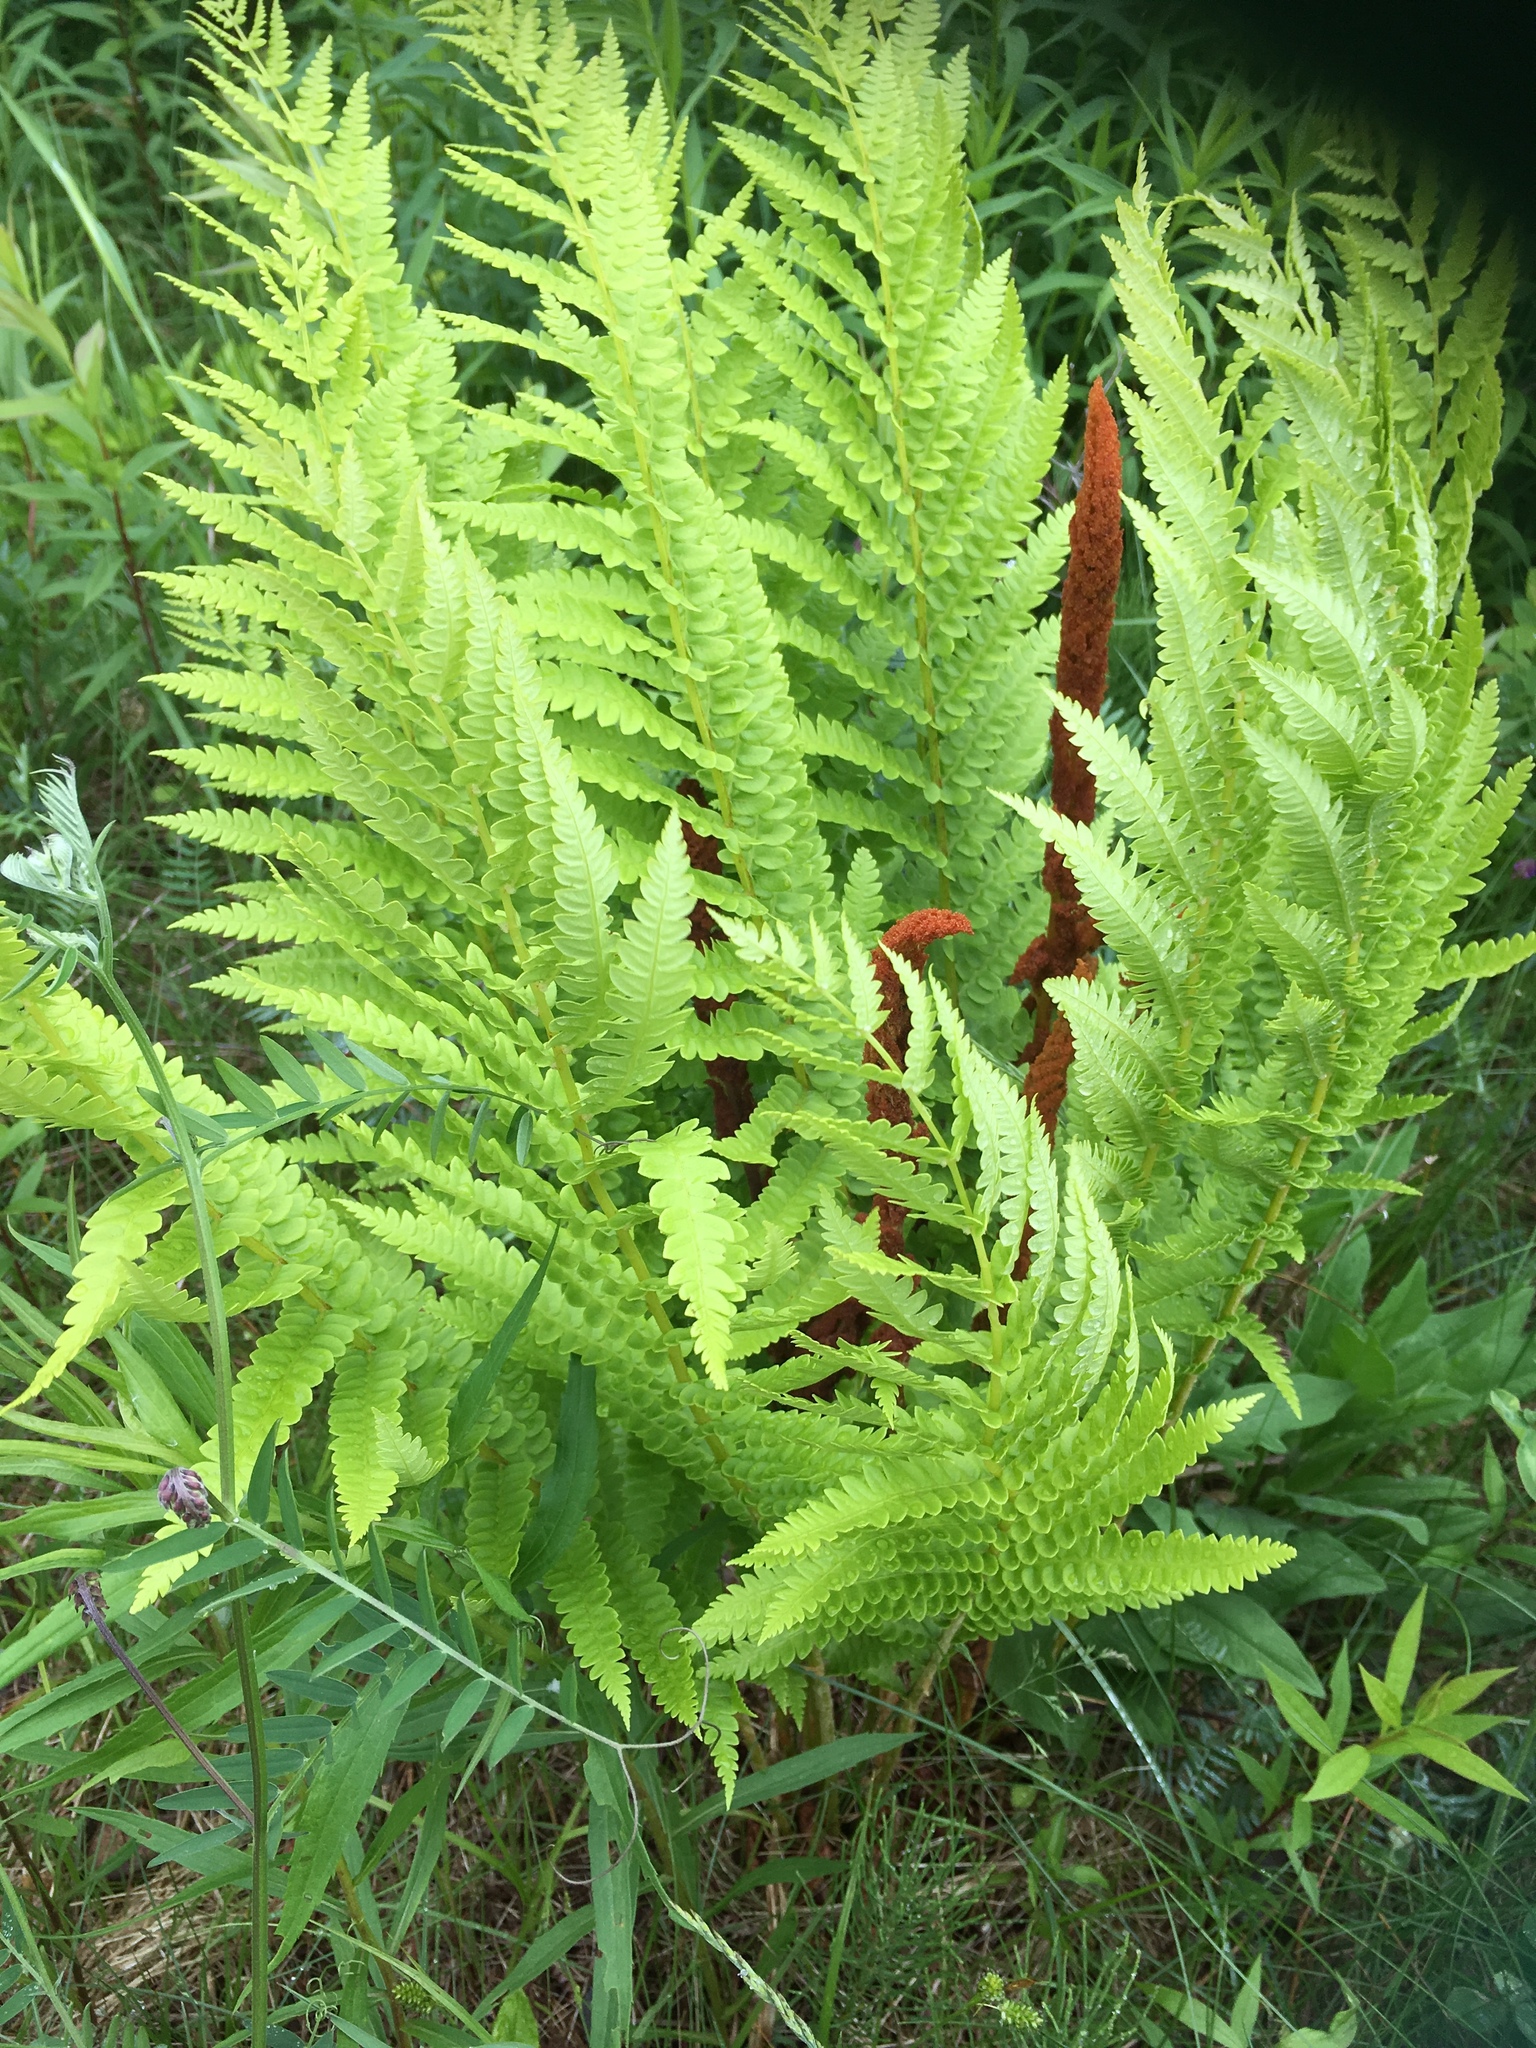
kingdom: Plantae
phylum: Tracheophyta
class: Polypodiopsida
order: Osmundales
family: Osmundaceae
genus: Osmundastrum
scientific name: Osmundastrum cinnamomeum
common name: Cinnamon fern
